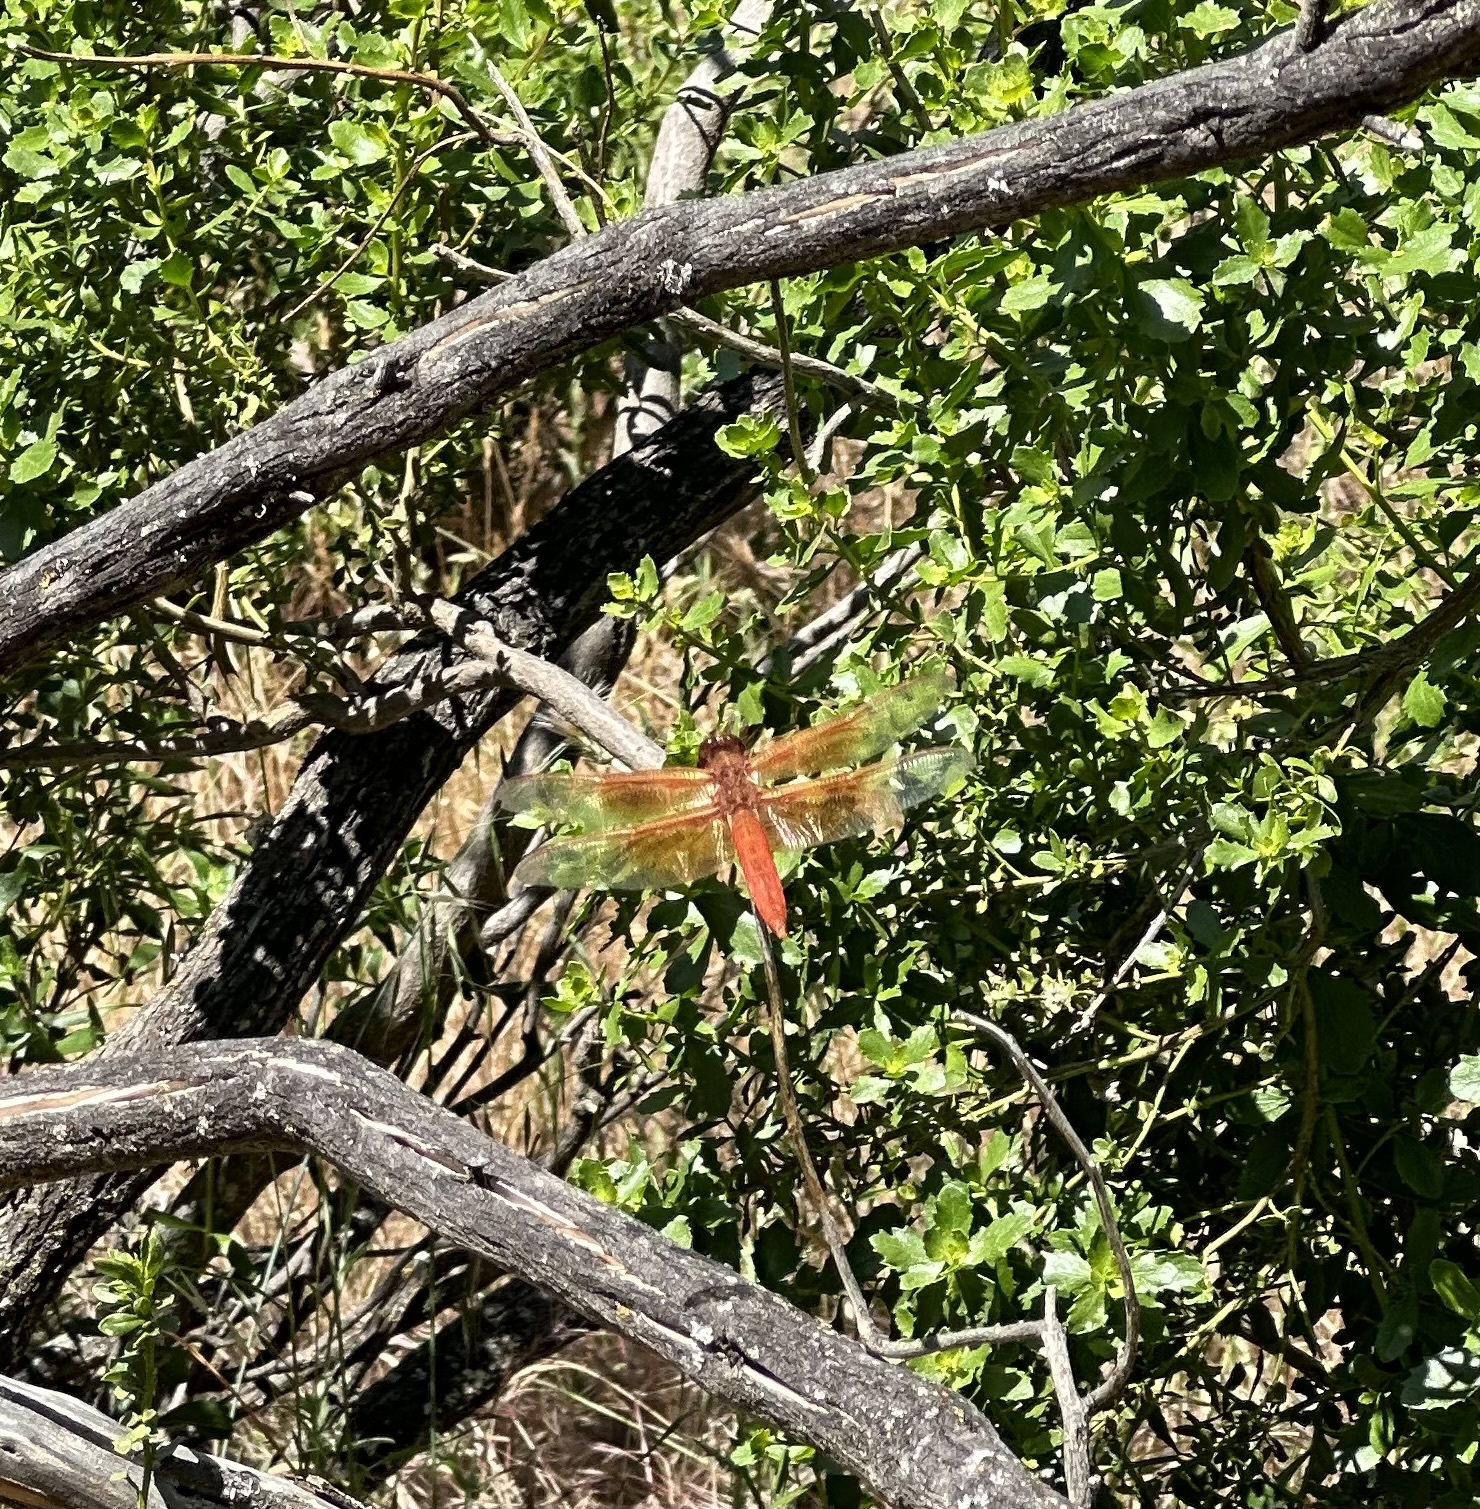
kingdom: Animalia
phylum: Arthropoda
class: Insecta
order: Odonata
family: Libellulidae
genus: Libellula
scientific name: Libellula saturata
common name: Flame skimmer
